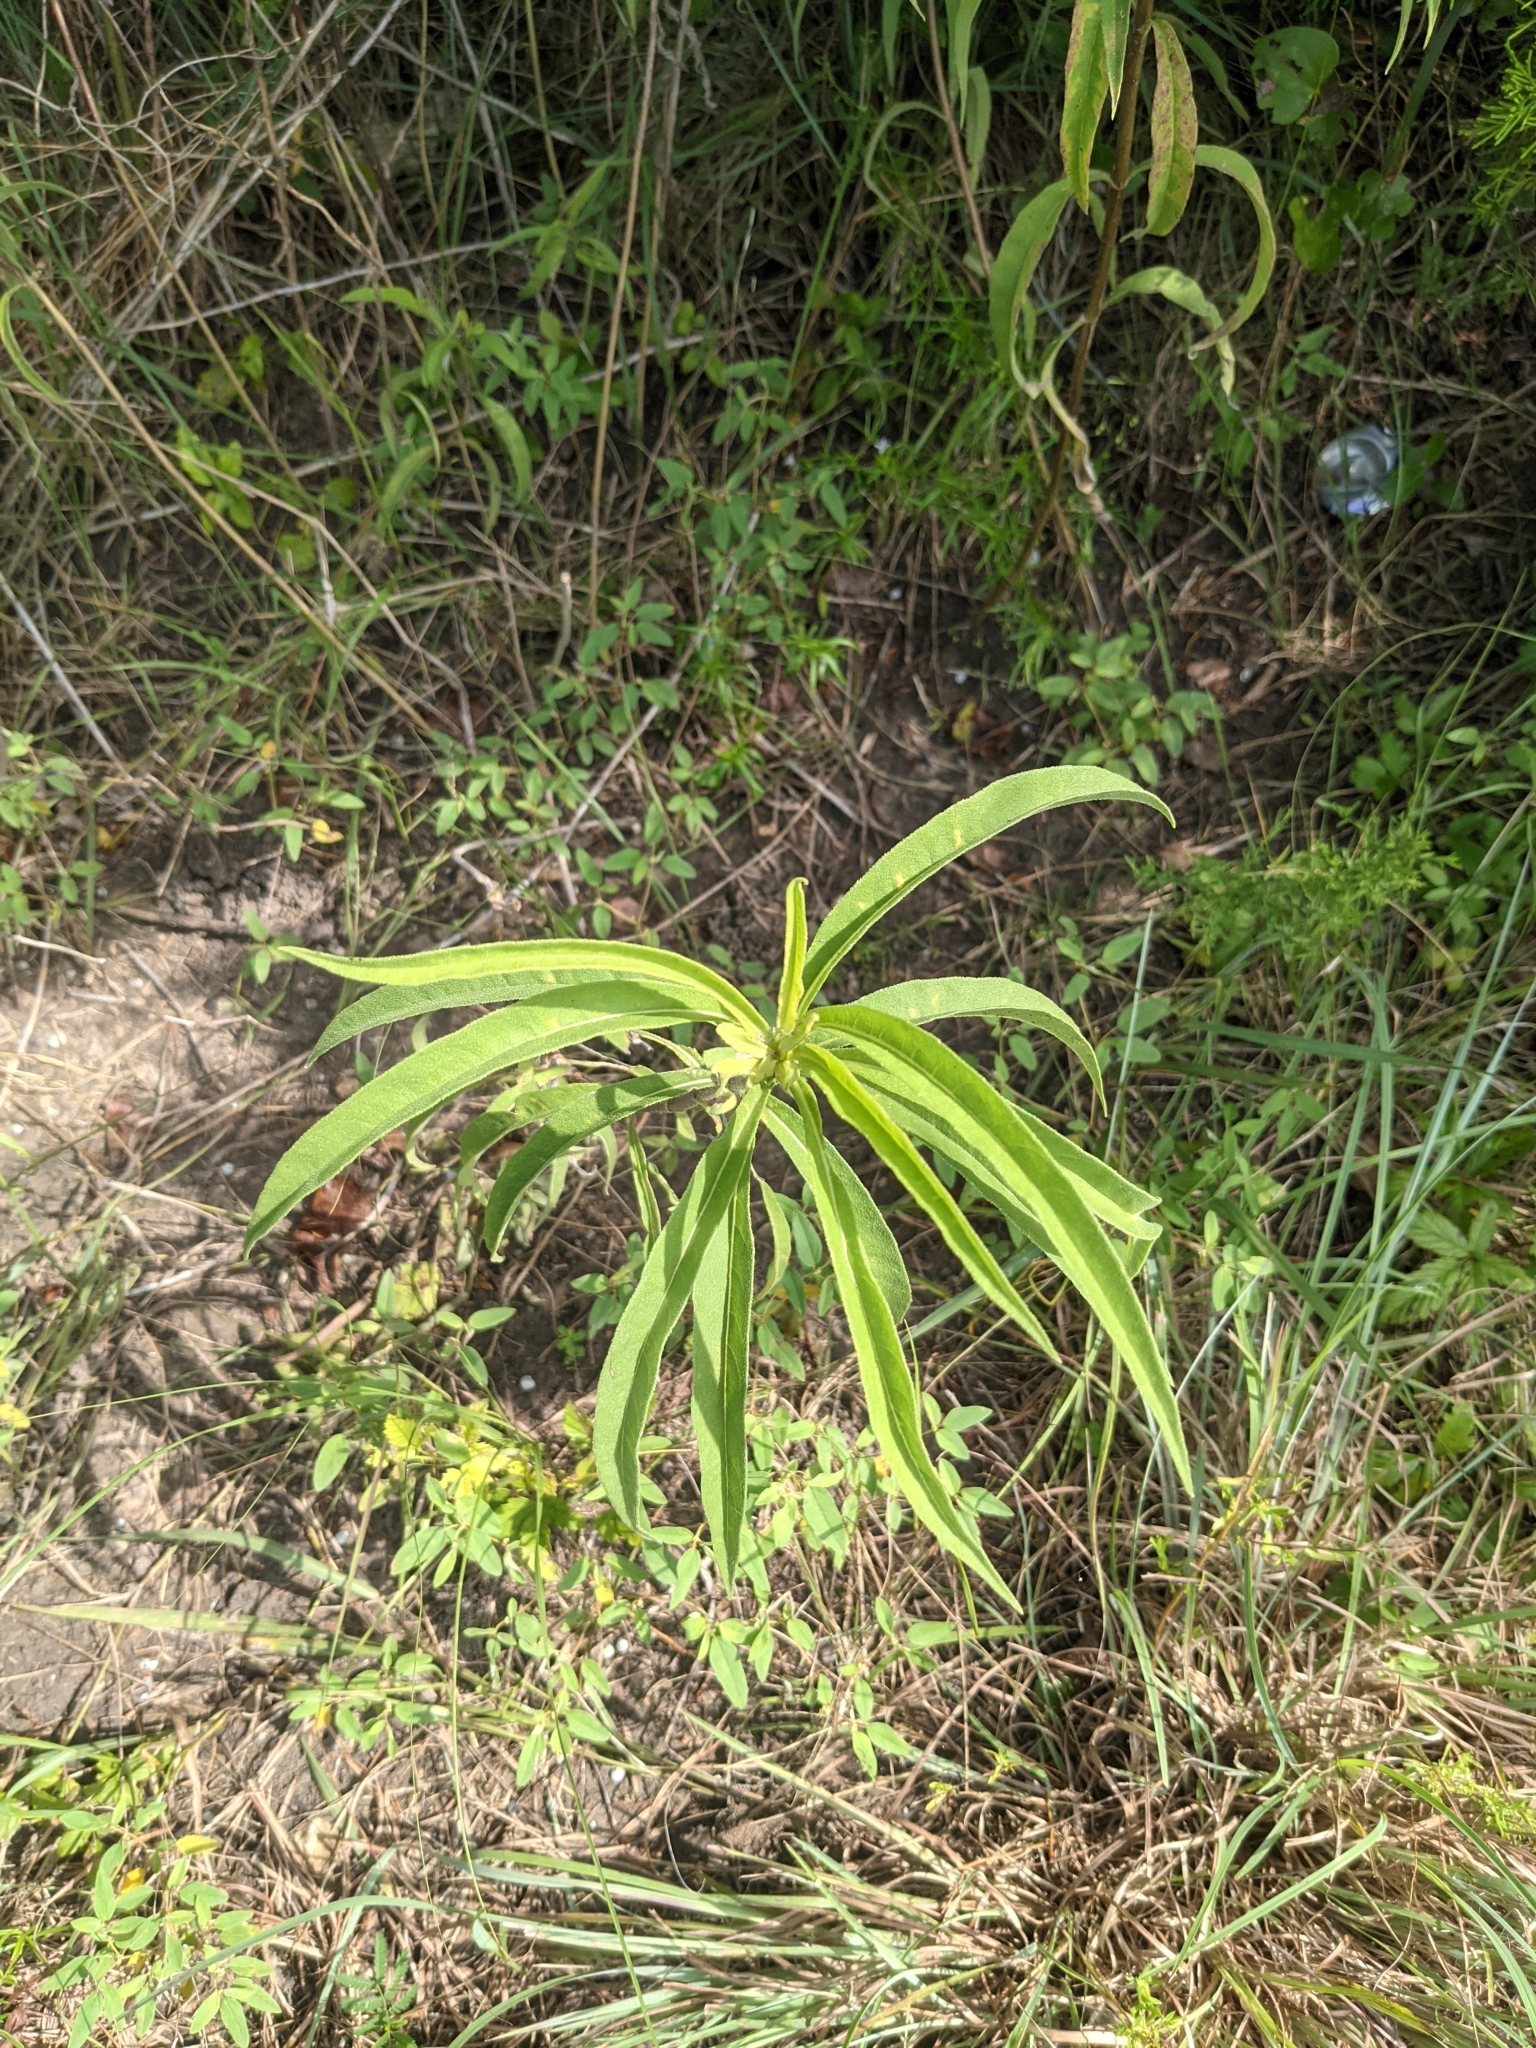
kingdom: Plantae
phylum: Tracheophyta
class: Magnoliopsida
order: Asterales
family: Asteraceae
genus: Helianthus
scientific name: Helianthus maximiliani
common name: Maximilian's sunflower
